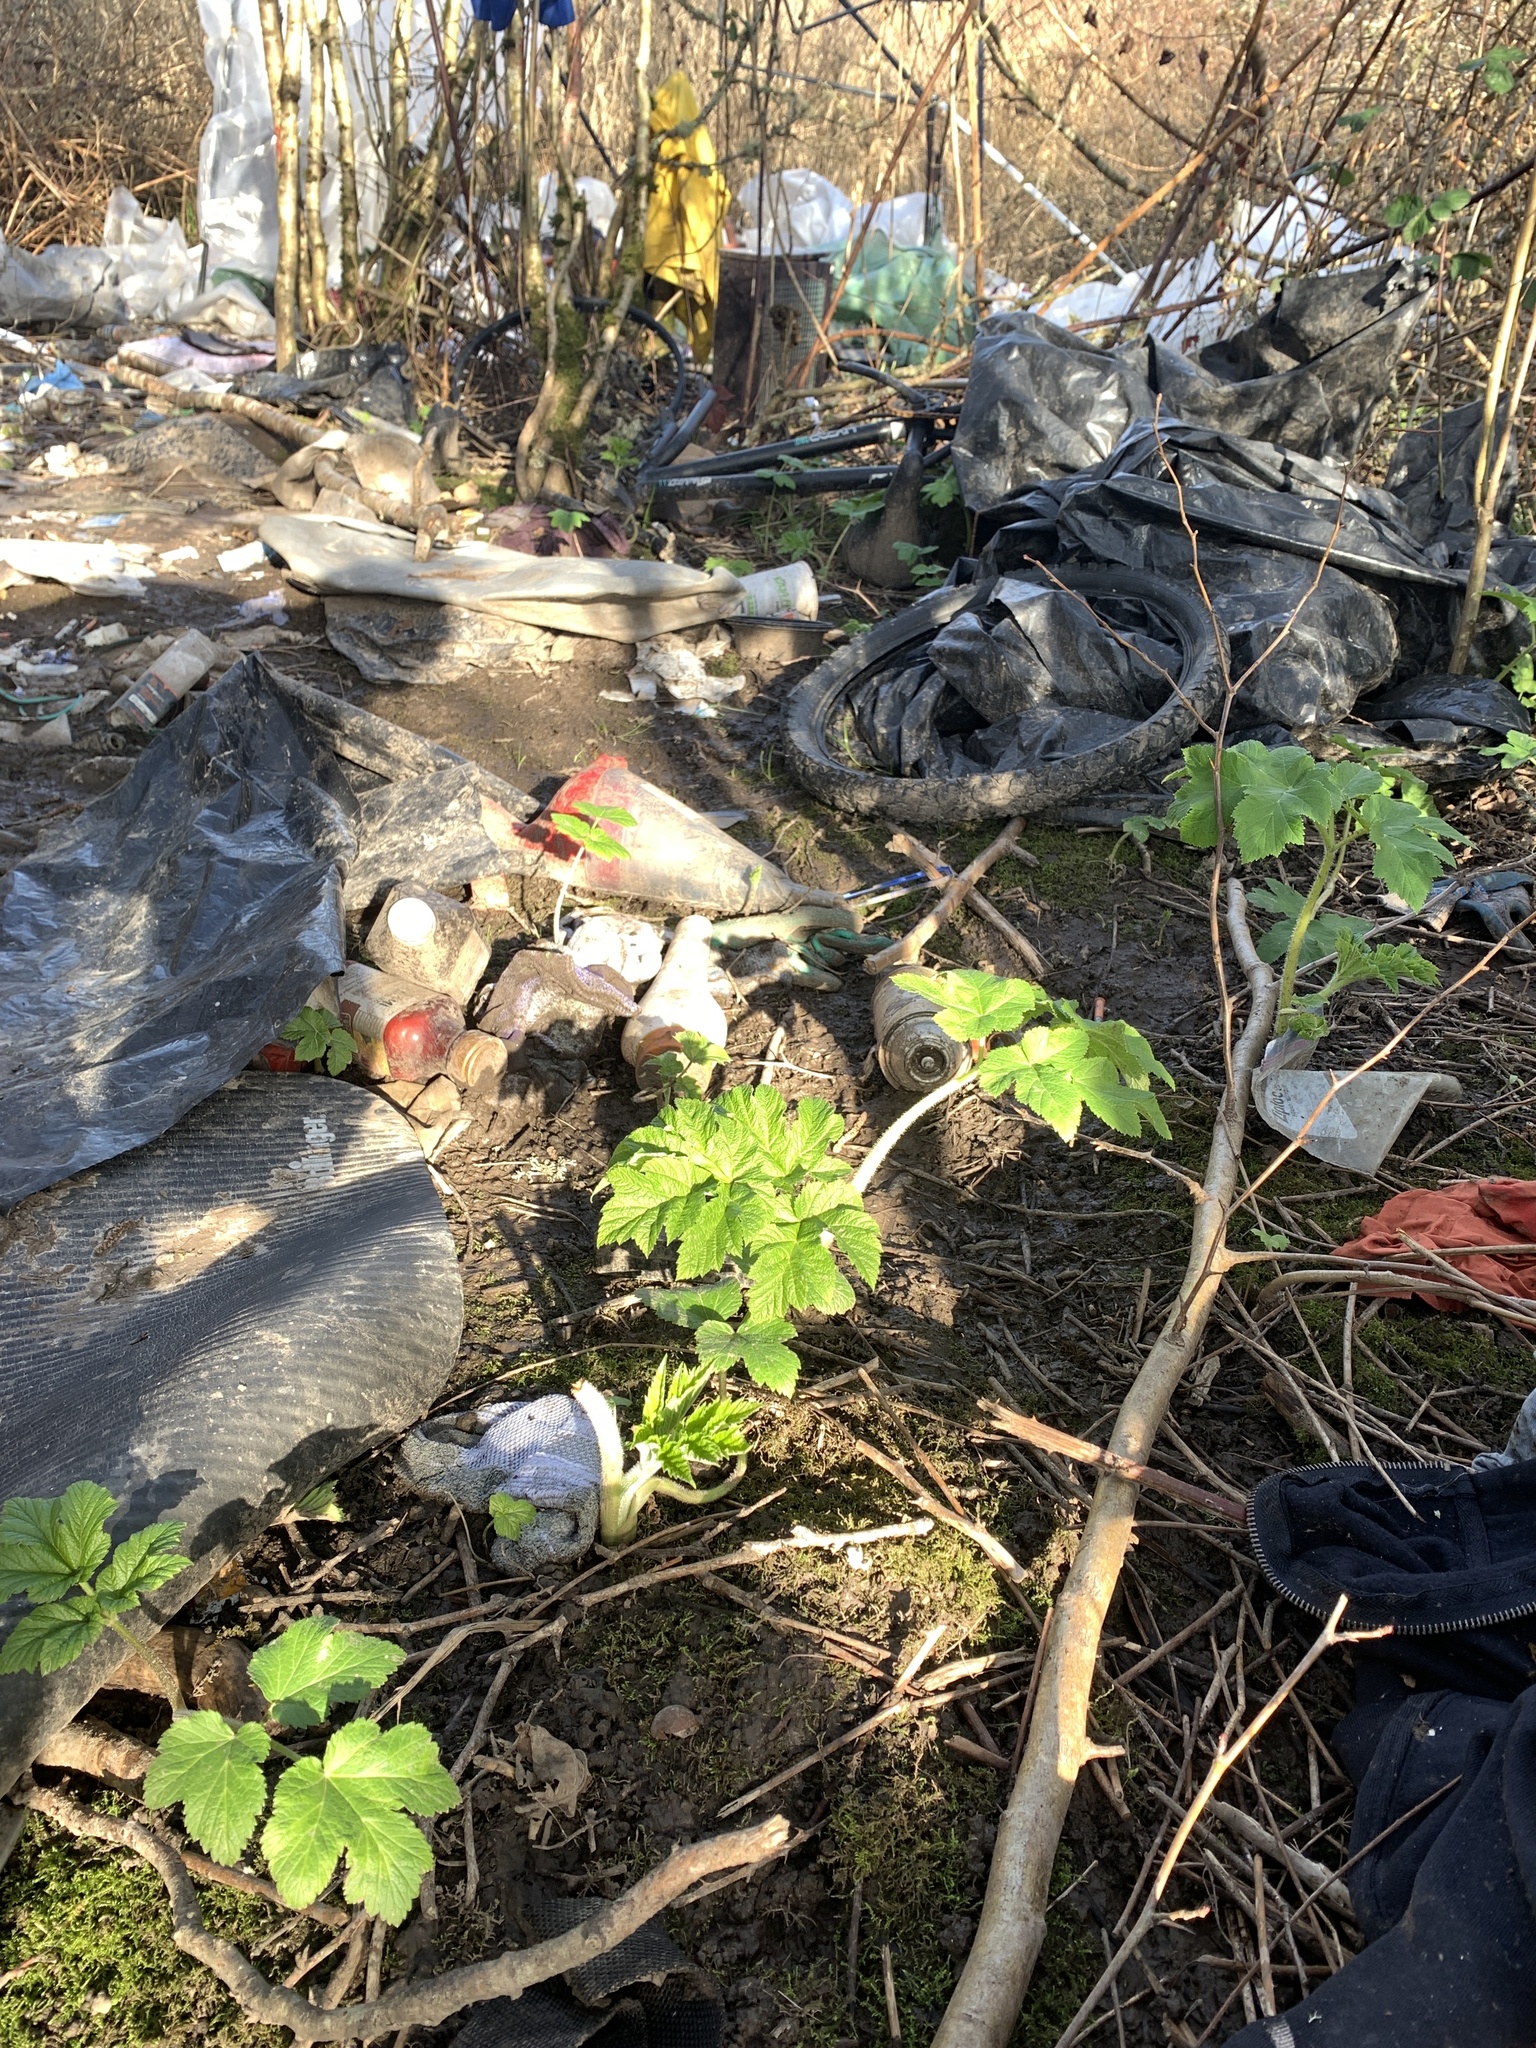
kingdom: Plantae
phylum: Tracheophyta
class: Magnoliopsida
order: Apiales
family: Apiaceae
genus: Heracleum
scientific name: Heracleum maximum
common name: American cow parsnip
